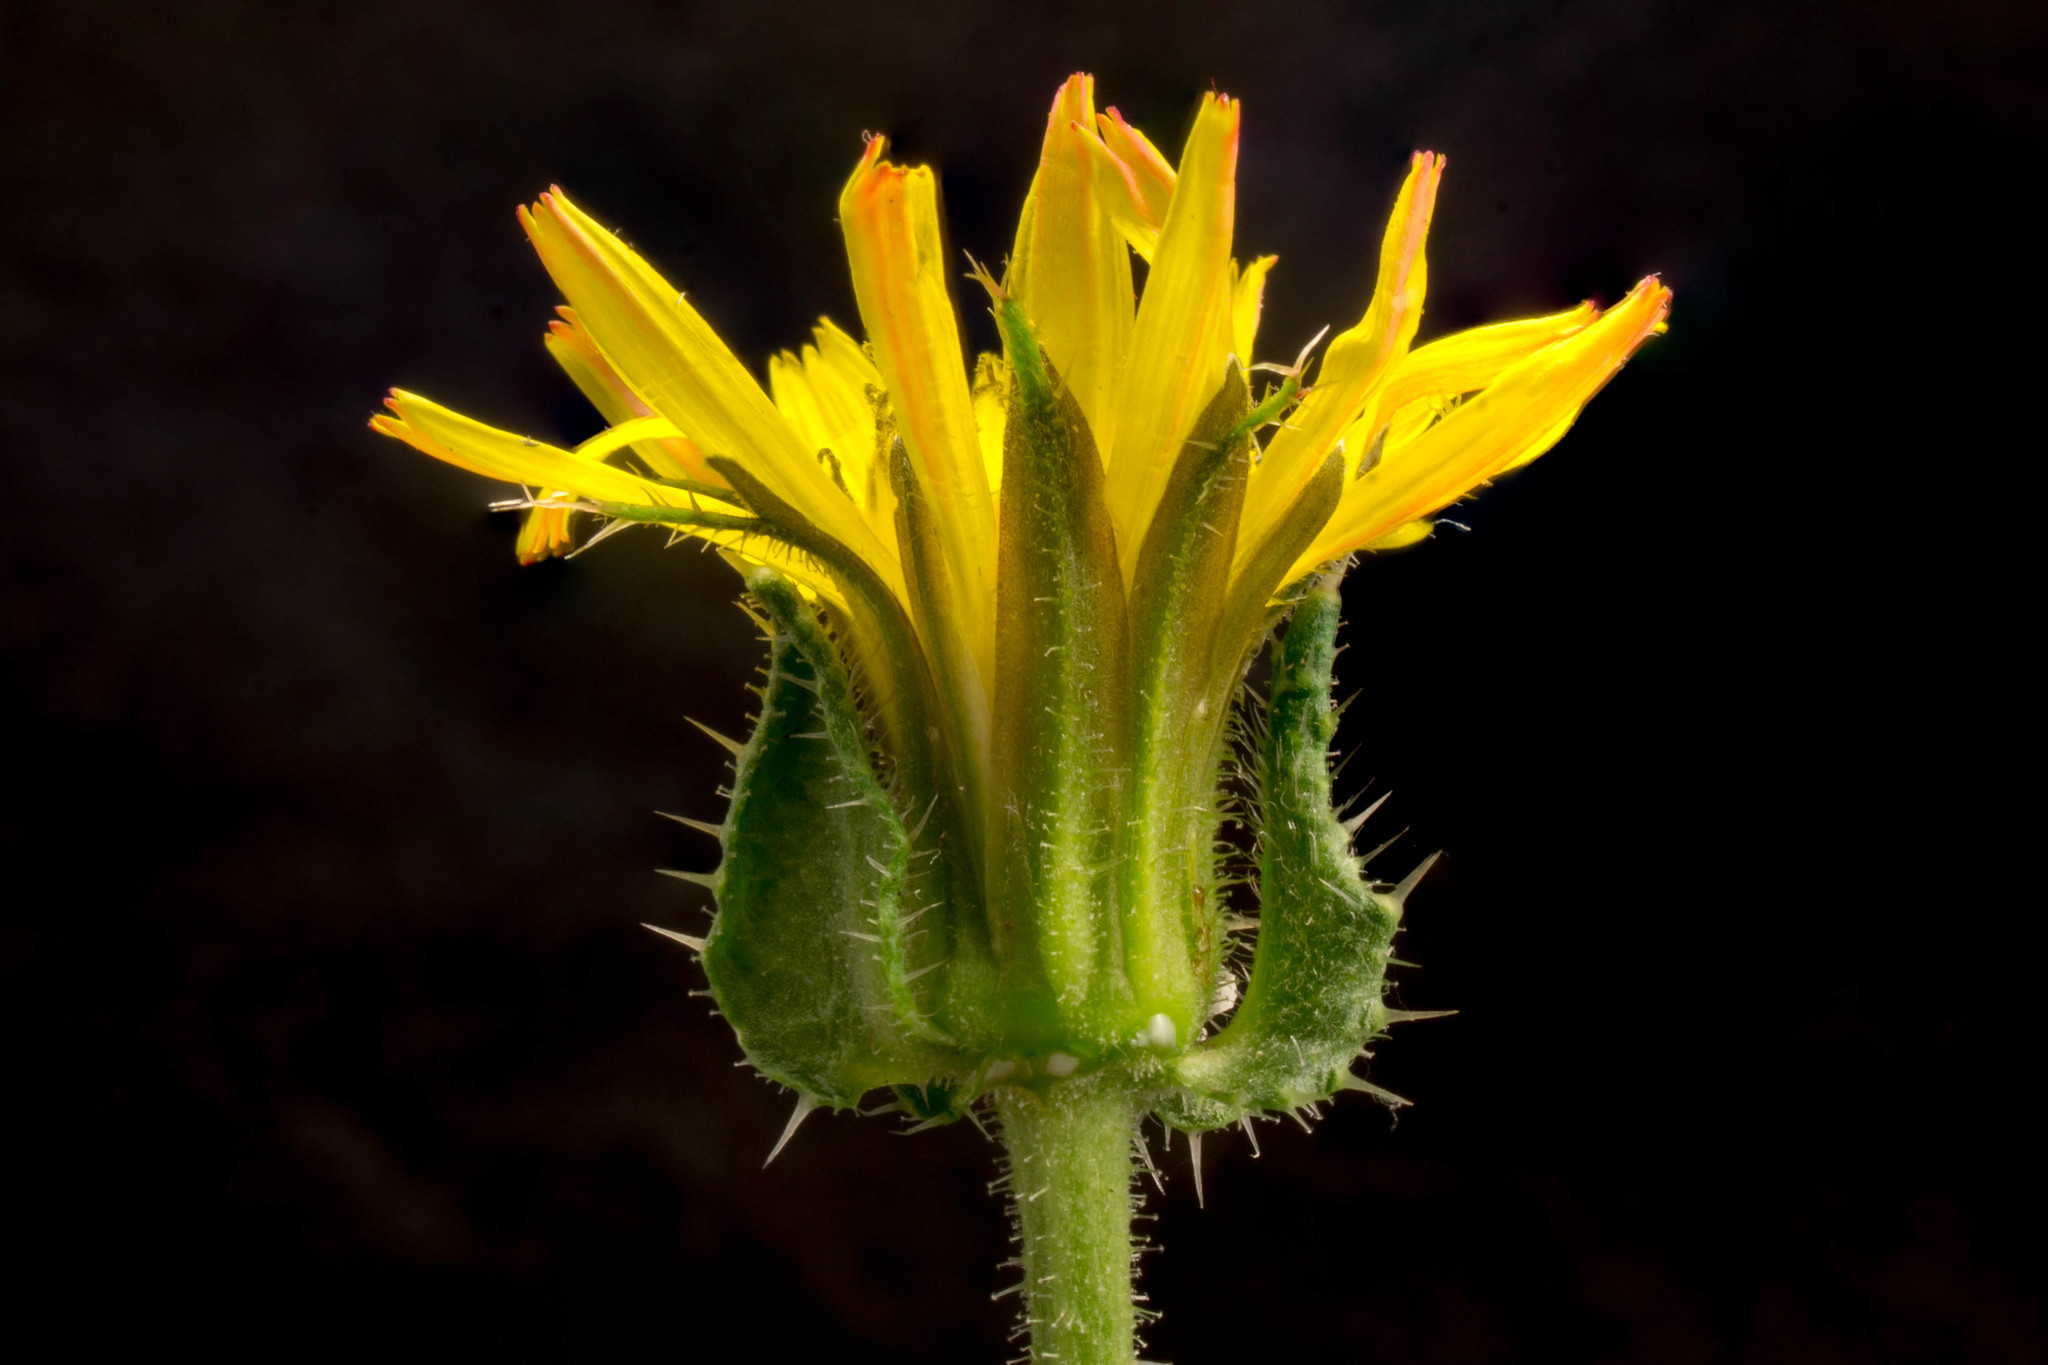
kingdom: Plantae
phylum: Tracheophyta
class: Magnoliopsida
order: Asterales
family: Asteraceae
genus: Helminthotheca
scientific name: Helminthotheca echioides
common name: Ox-tongue
